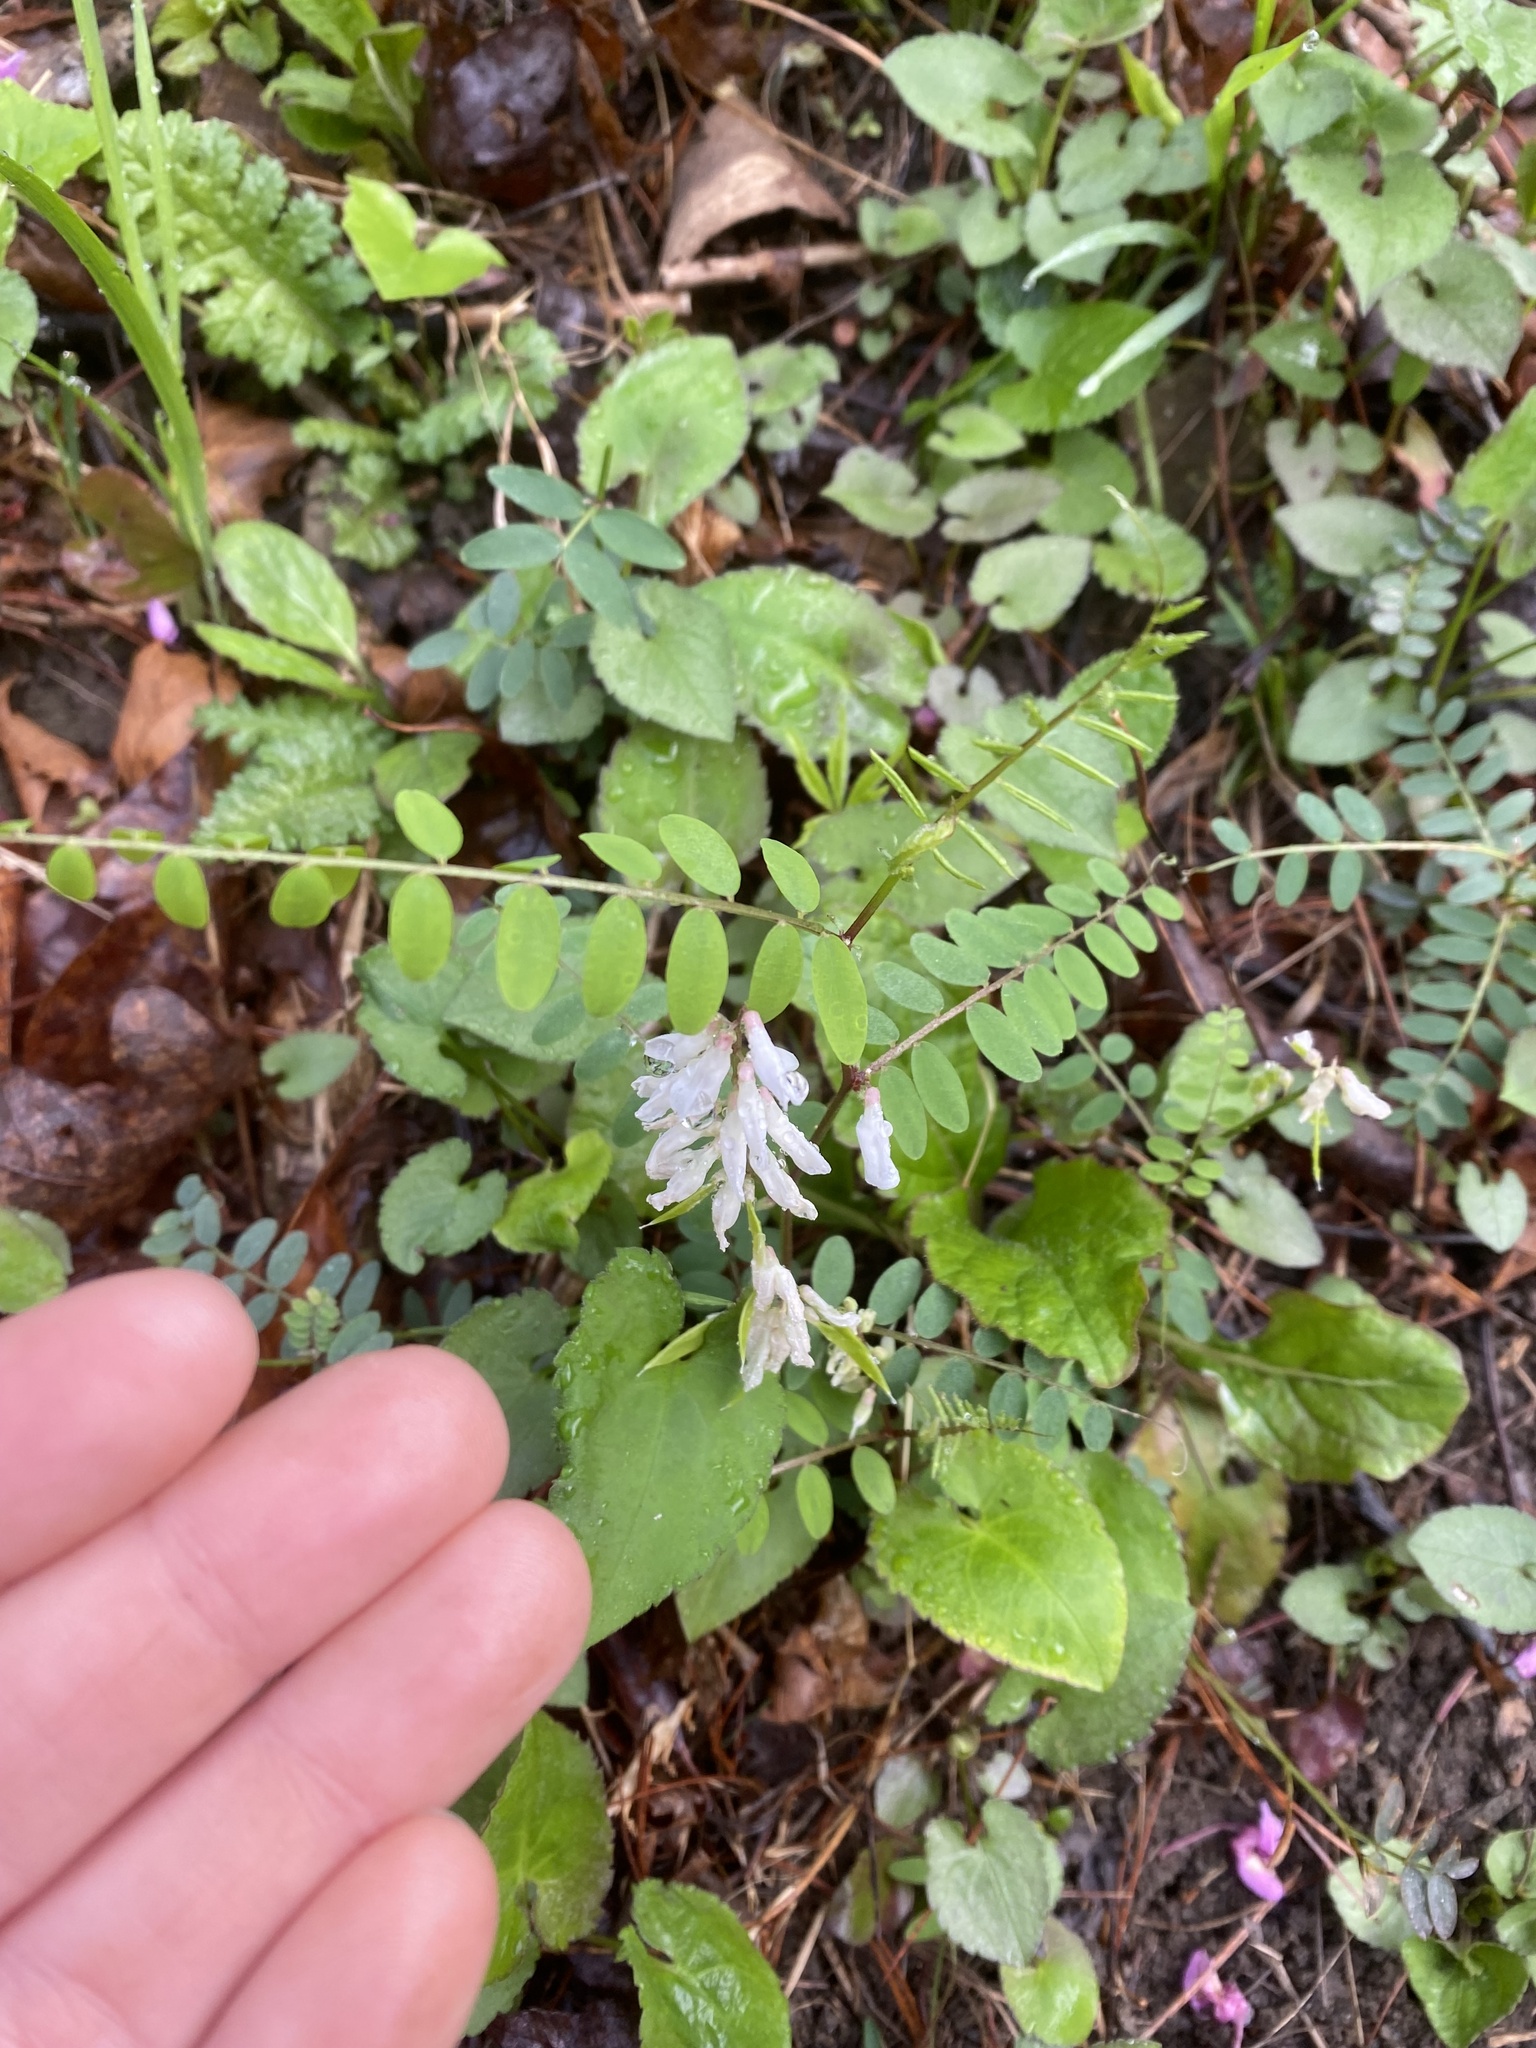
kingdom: Plantae
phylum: Tracheophyta
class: Magnoliopsida
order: Fabales
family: Fabaceae
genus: Vicia
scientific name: Vicia caroliniana
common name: Carolina vetch
